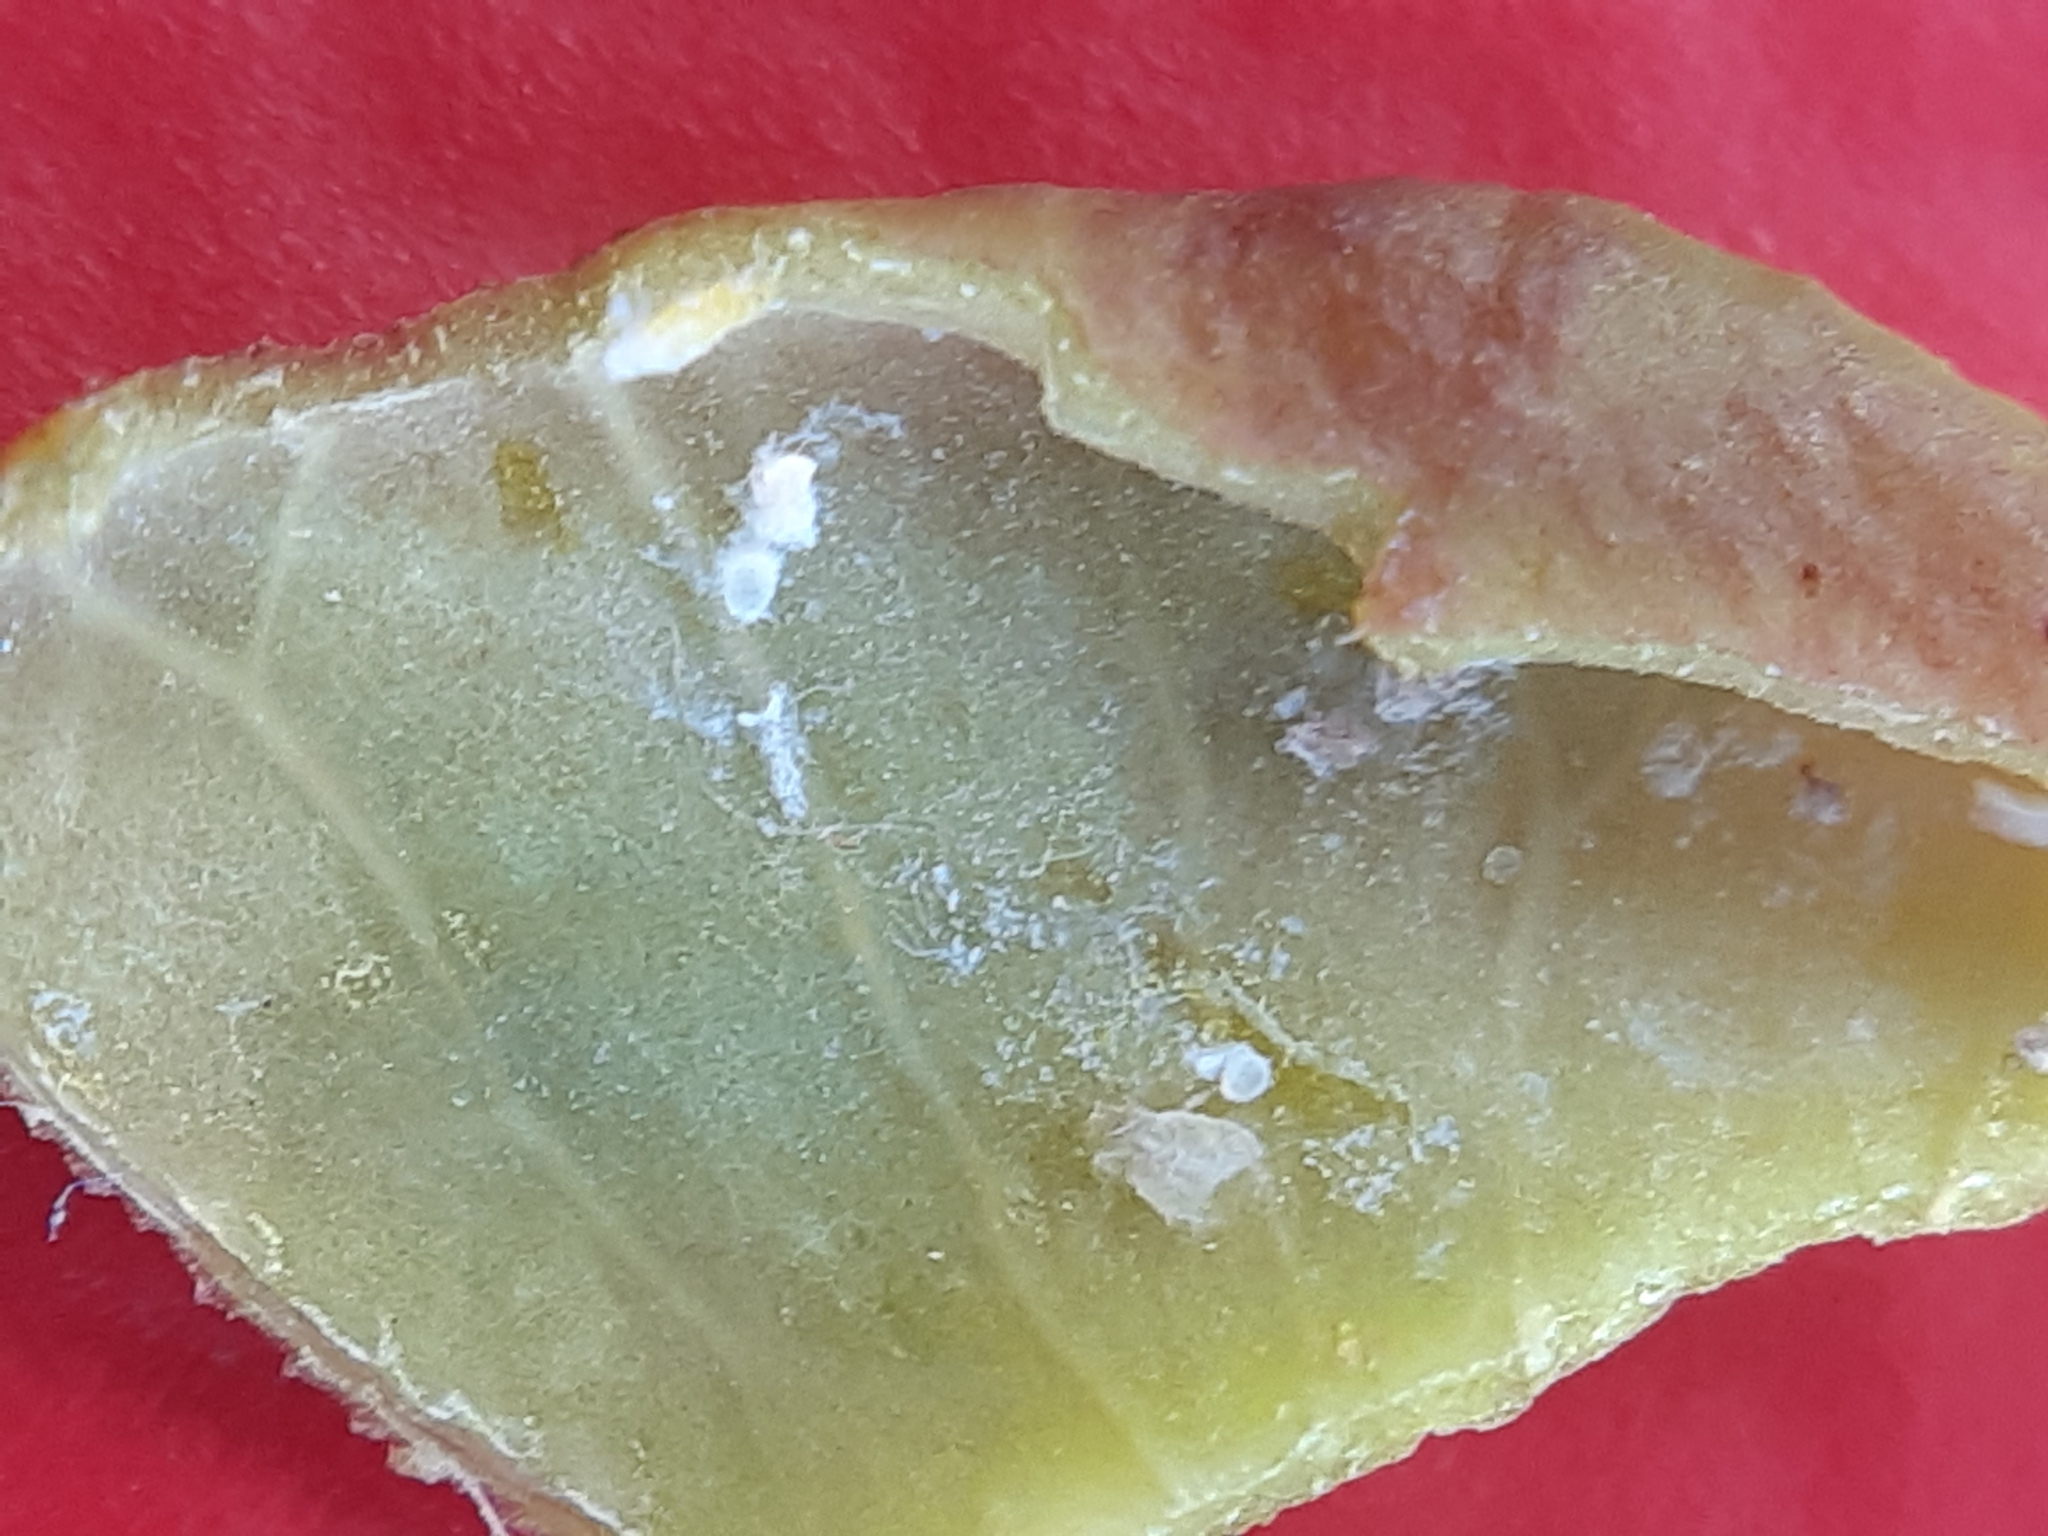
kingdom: Animalia
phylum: Arthropoda
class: Insecta
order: Hemiptera
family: Aphididae
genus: Aploneura
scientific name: Aploneura lentisci
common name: Mealy grass root aphid
